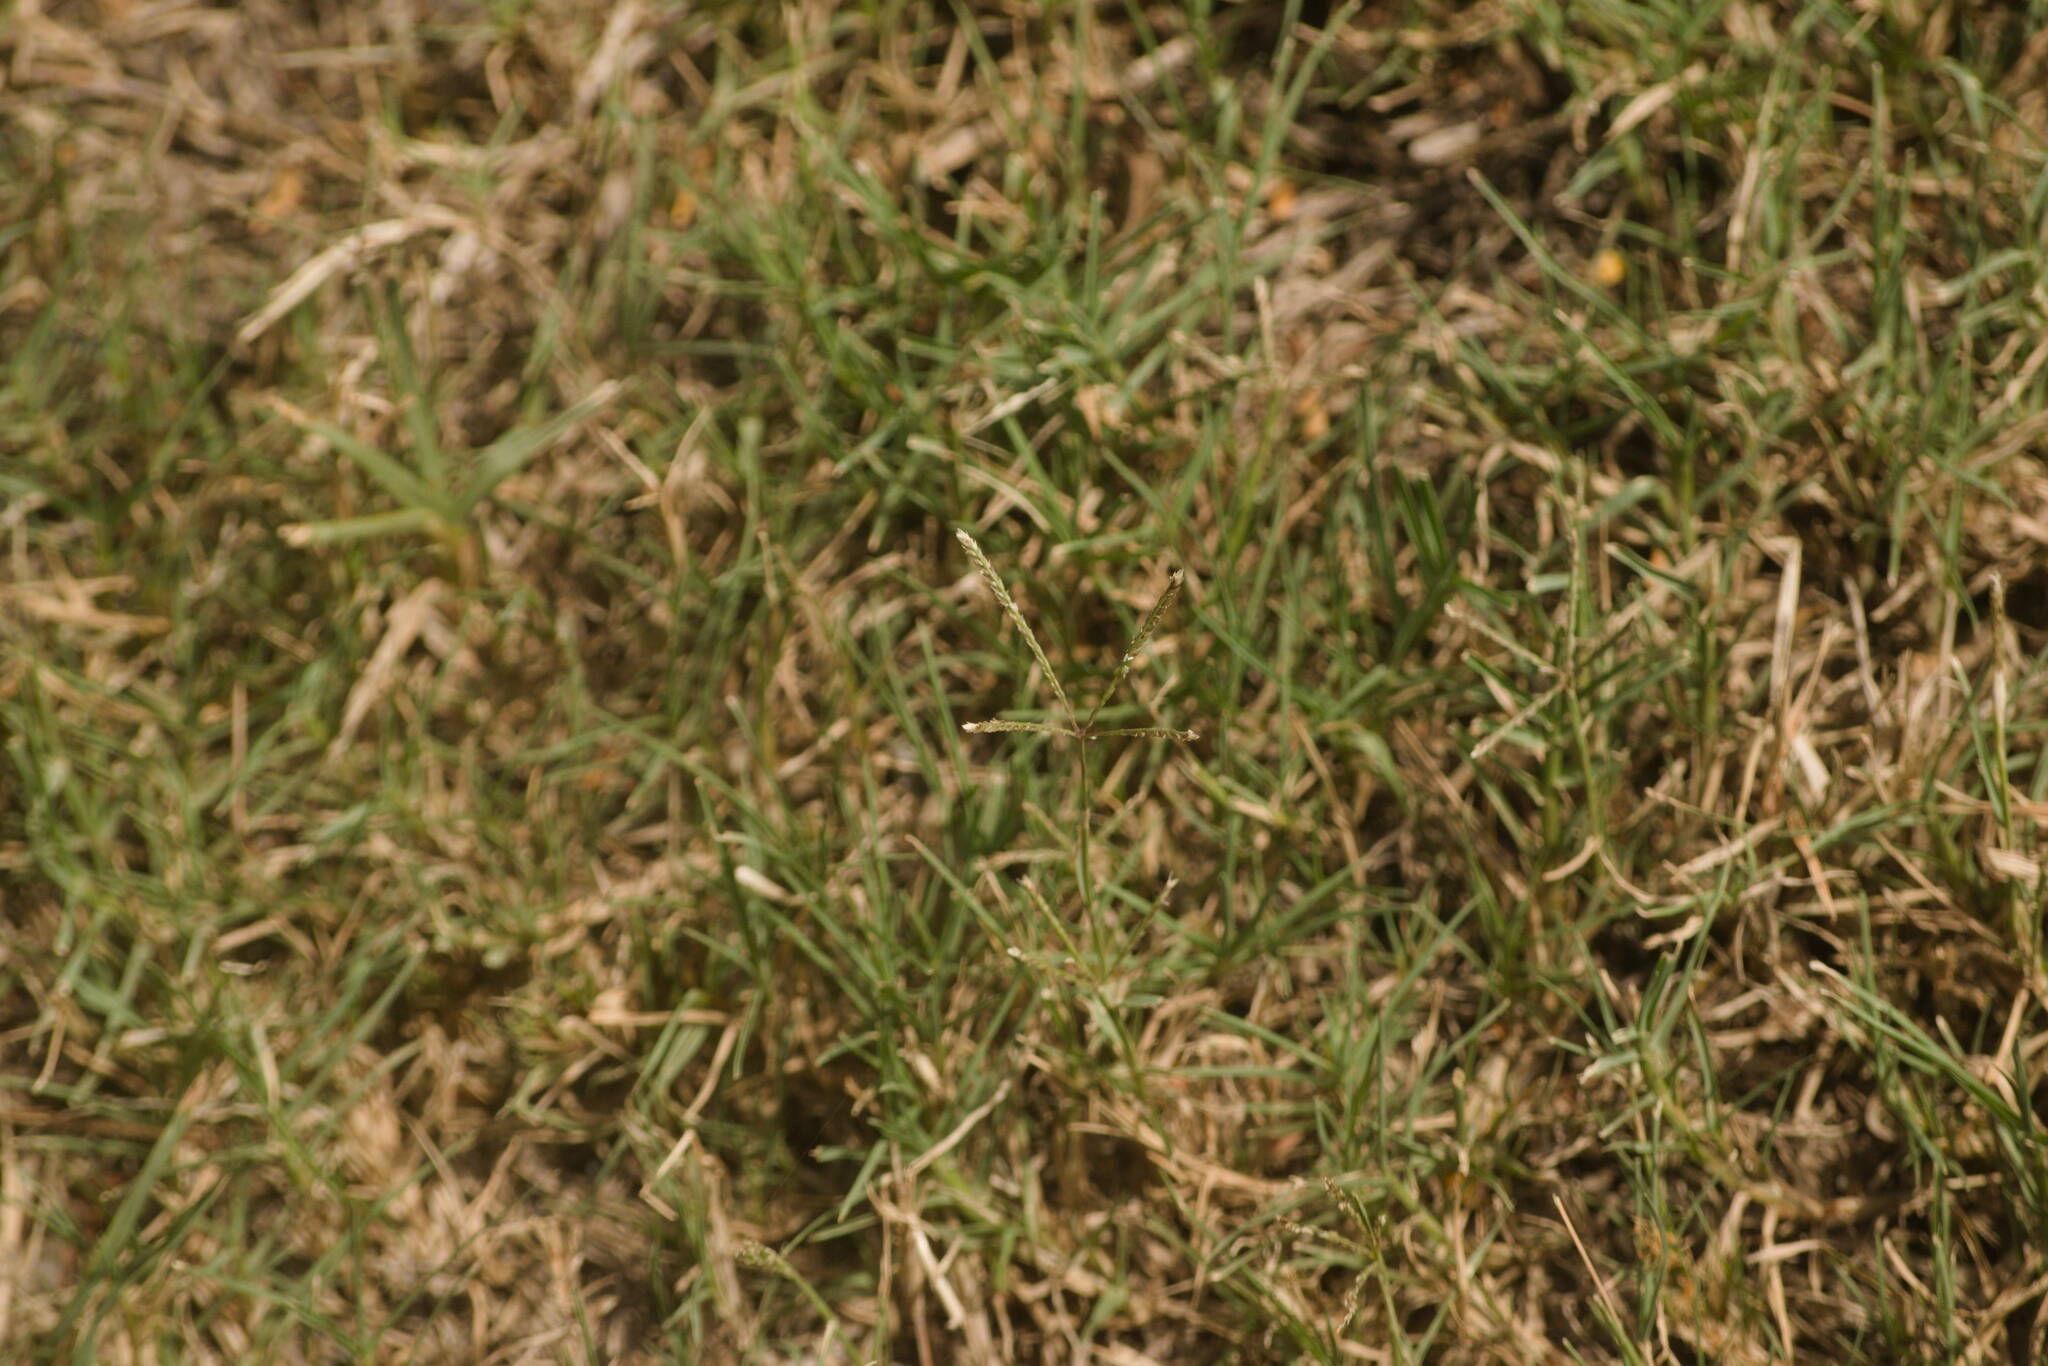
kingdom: Plantae
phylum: Tracheophyta
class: Liliopsida
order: Poales
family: Poaceae
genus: Cynodon
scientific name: Cynodon dactylon
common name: Bermuda grass
